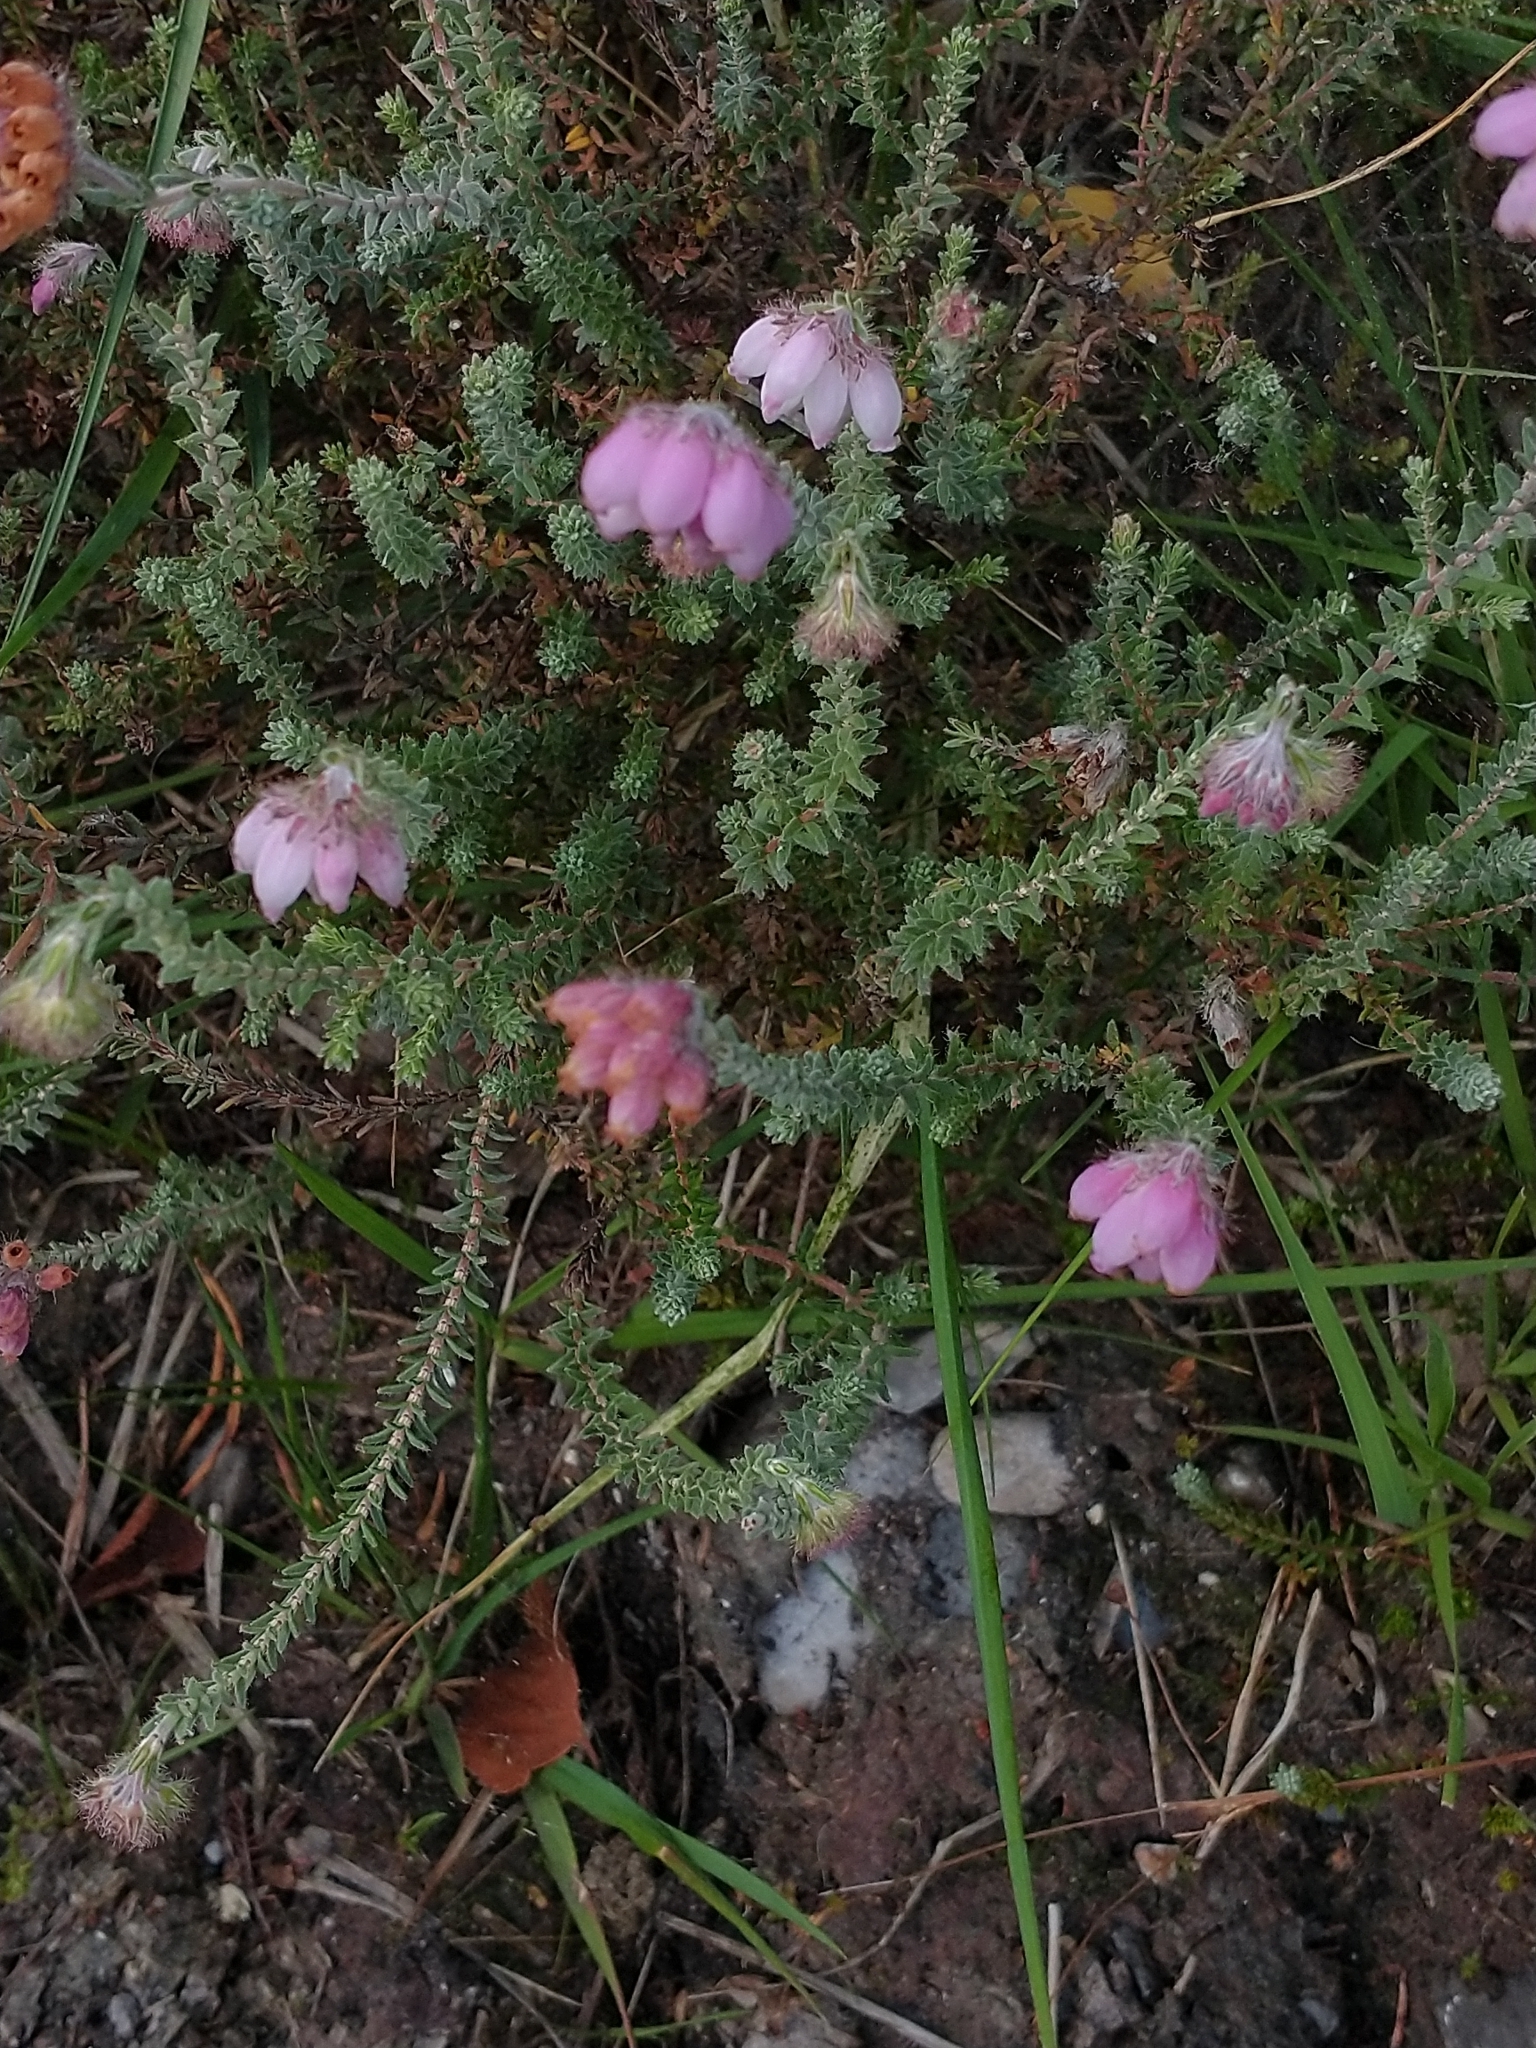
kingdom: Plantae
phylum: Tracheophyta
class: Magnoliopsida
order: Ericales
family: Ericaceae
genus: Erica
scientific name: Erica tetralix
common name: Cross-leaved heath
